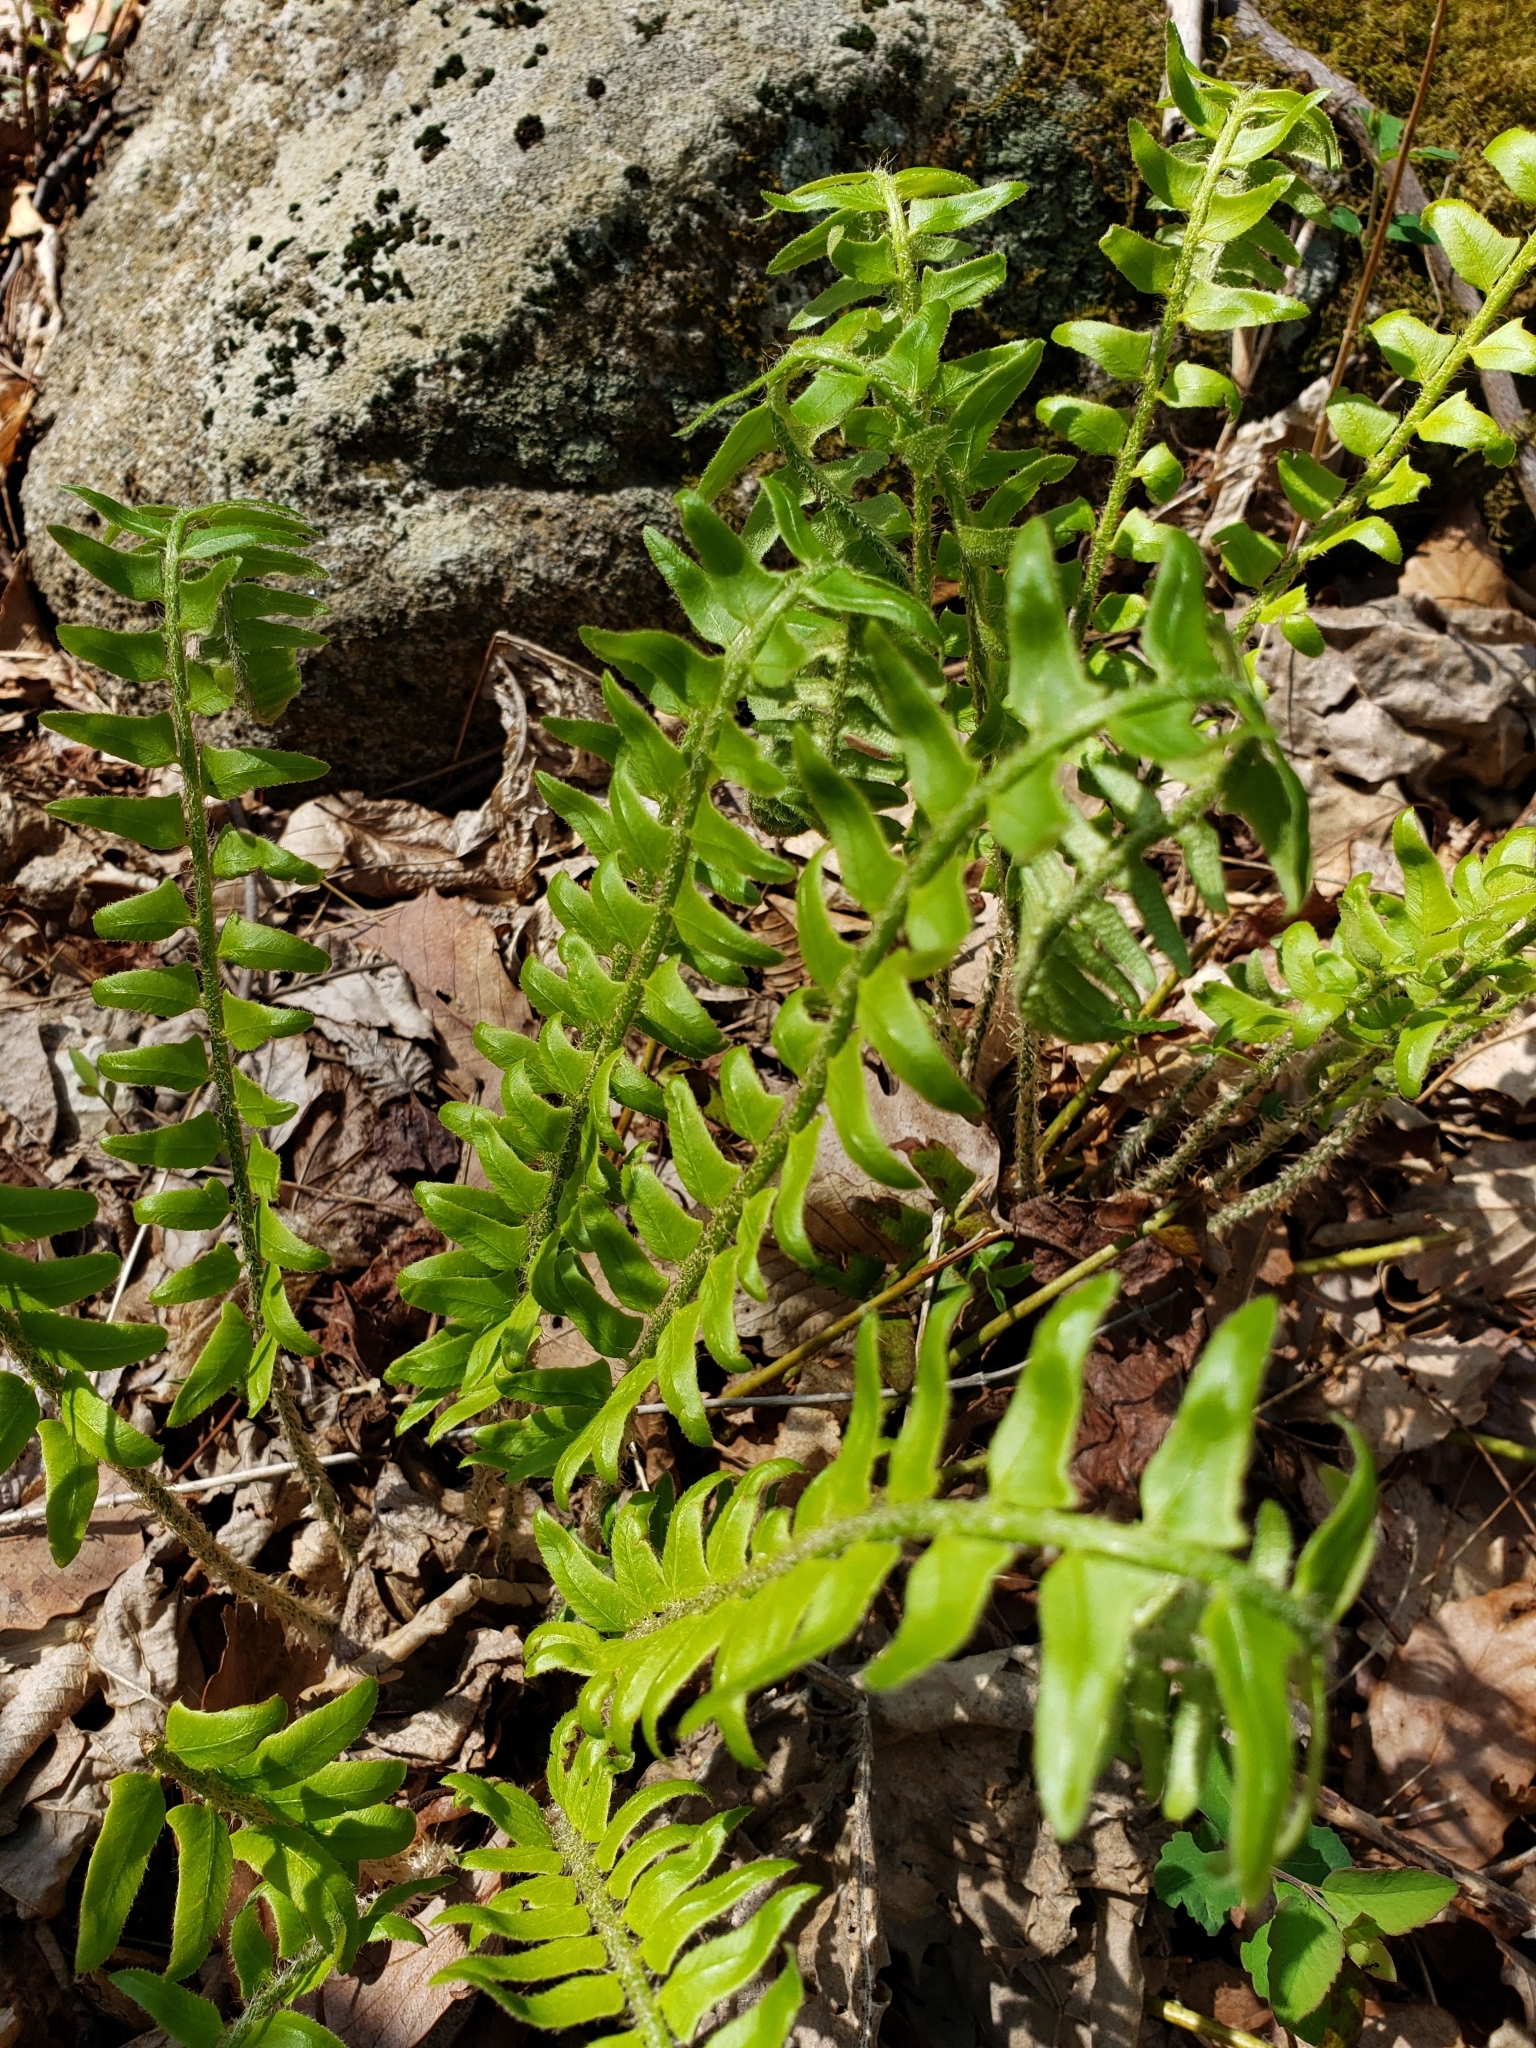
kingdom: Plantae
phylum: Tracheophyta
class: Polypodiopsida
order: Polypodiales
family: Dryopteridaceae
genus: Polystichum
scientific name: Polystichum acrostichoides
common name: Christmas fern
